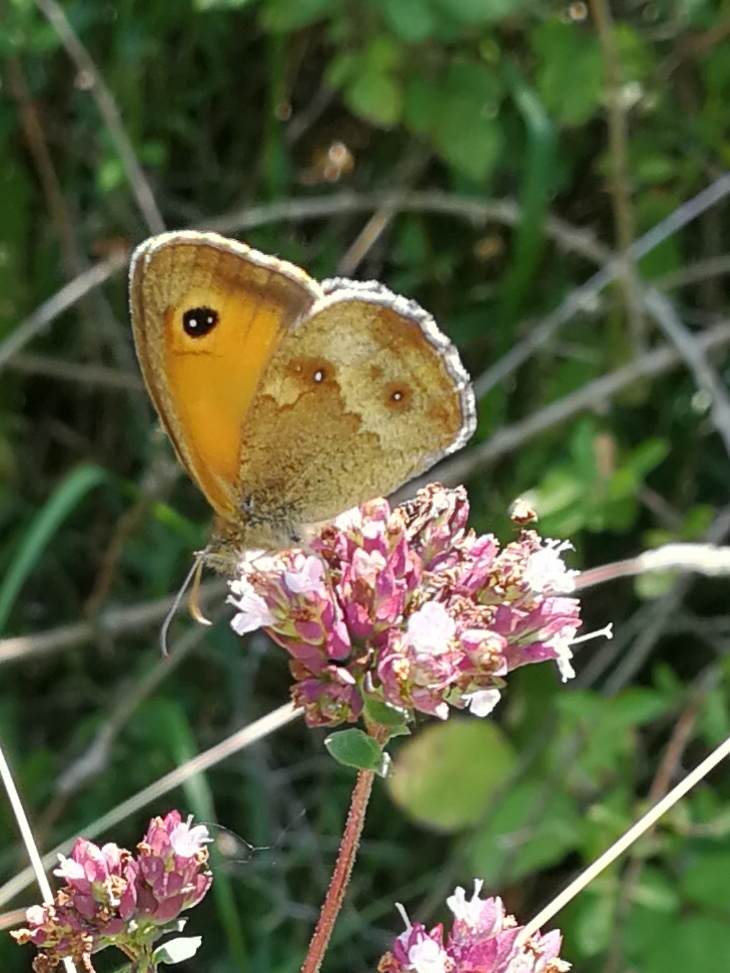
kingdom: Animalia
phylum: Arthropoda
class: Insecta
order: Lepidoptera
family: Nymphalidae
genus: Pyronia
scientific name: Pyronia tithonus
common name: Gatekeeper
